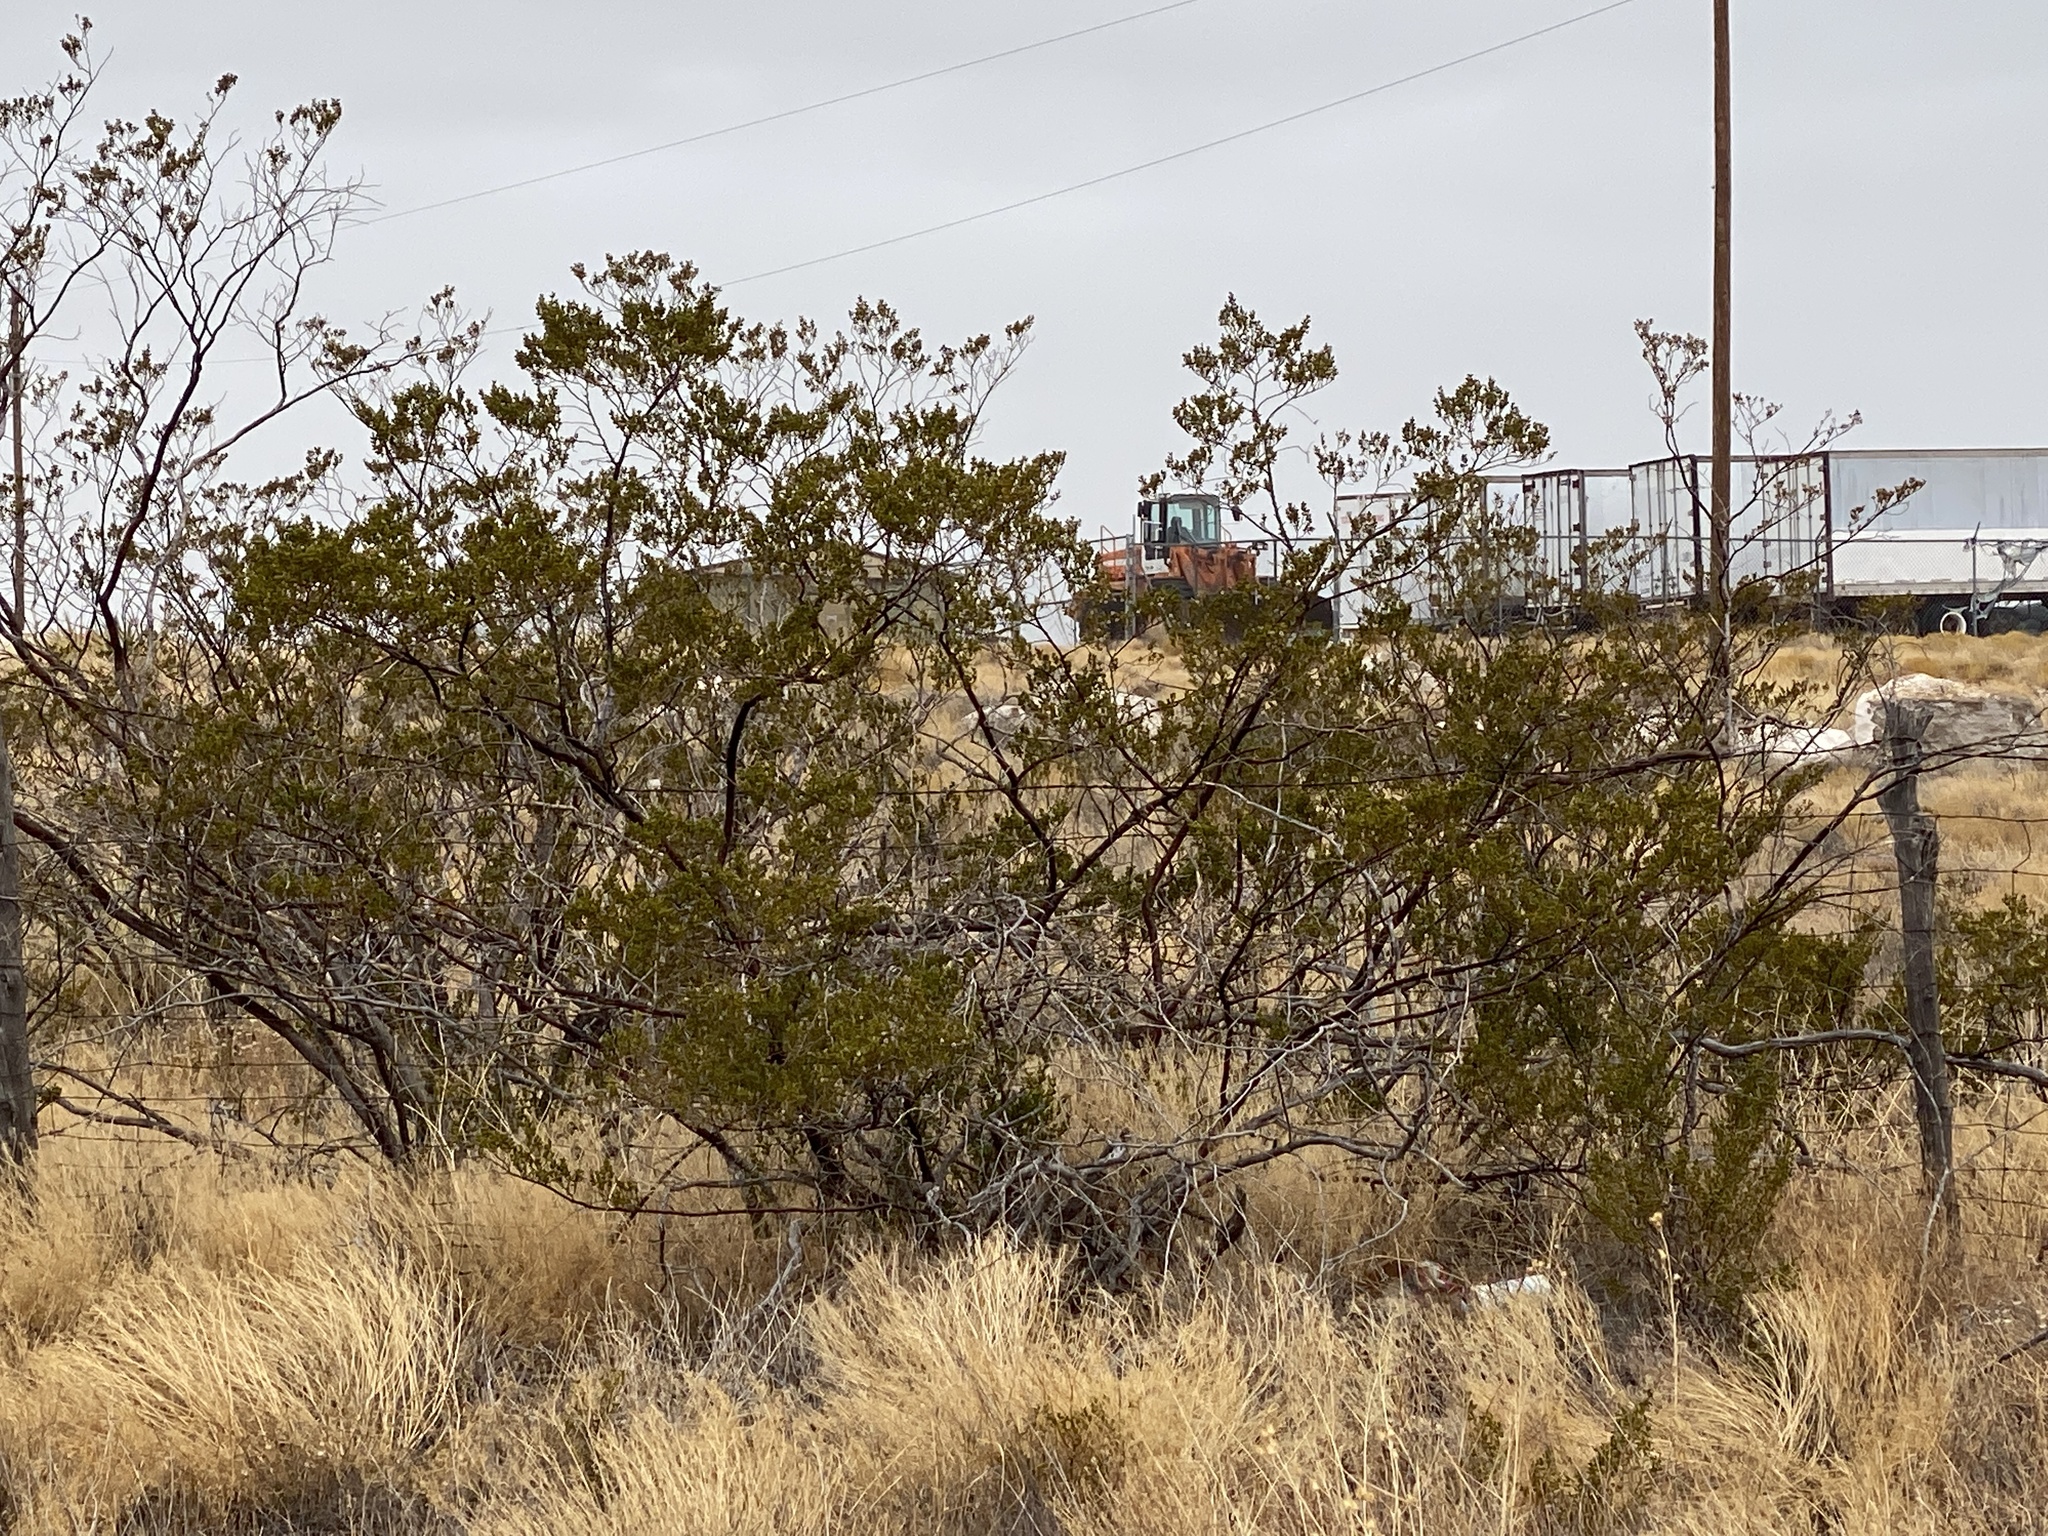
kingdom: Plantae
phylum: Tracheophyta
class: Magnoliopsida
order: Zygophyllales
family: Zygophyllaceae
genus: Larrea
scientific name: Larrea tridentata
